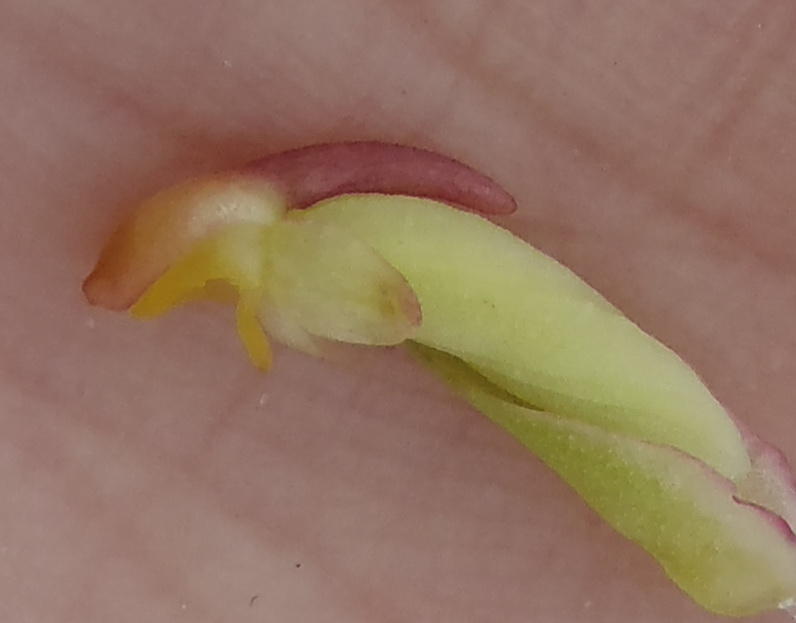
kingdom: Plantae
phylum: Tracheophyta
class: Liliopsida
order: Asparagales
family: Orchidaceae
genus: Disa
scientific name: Disa bracteata
